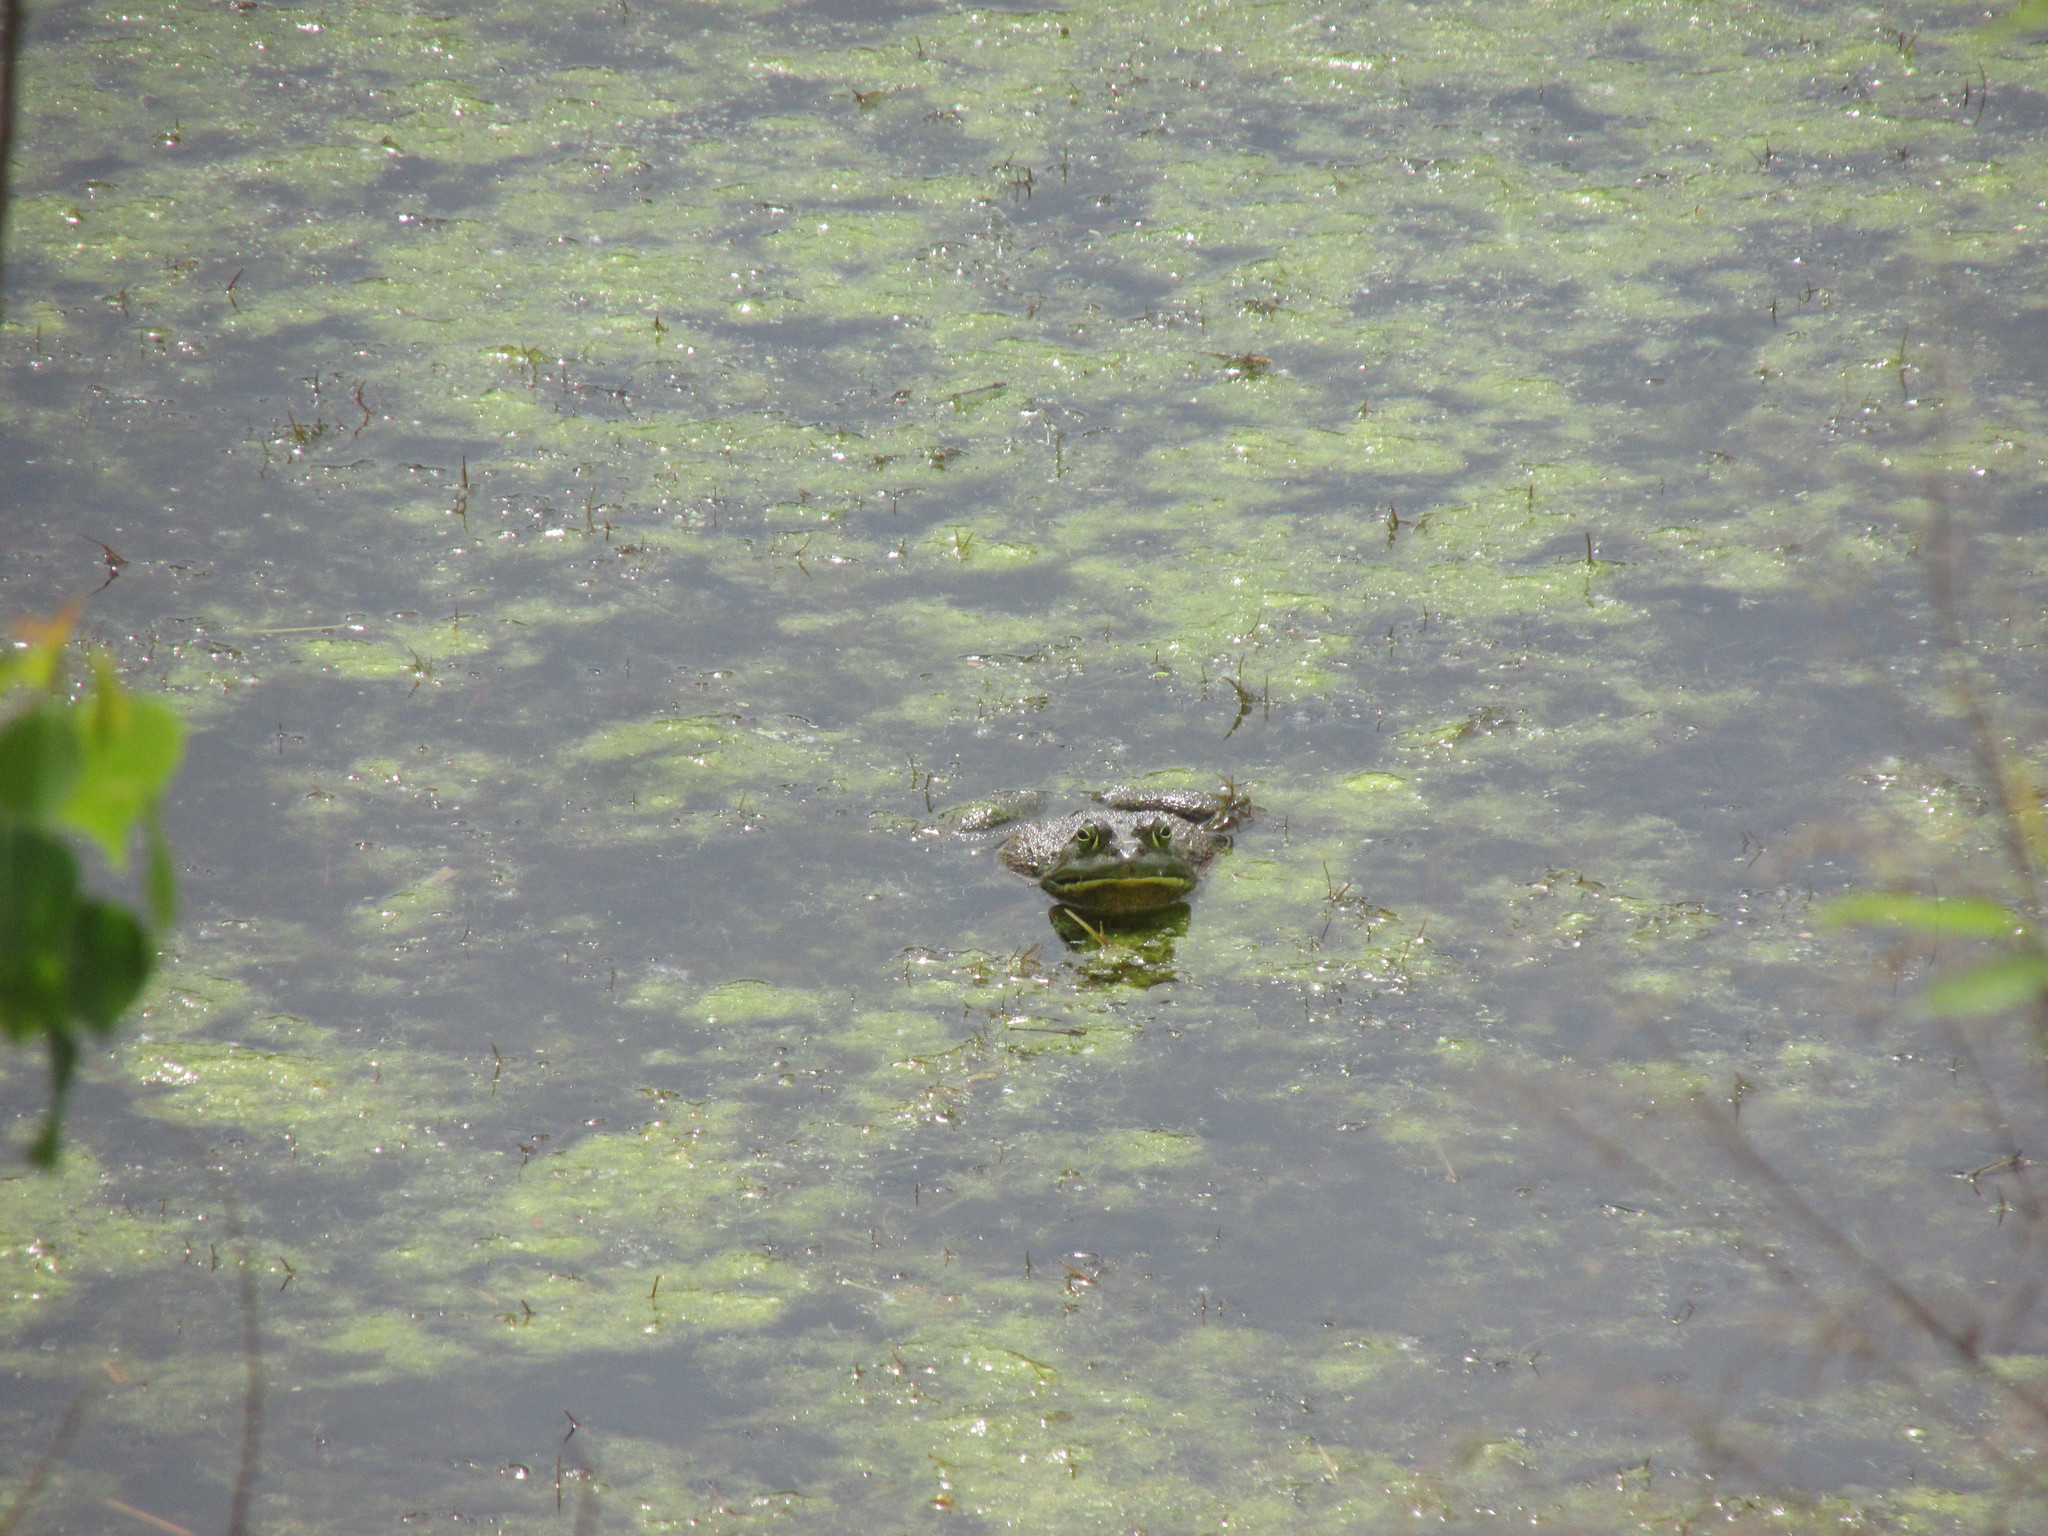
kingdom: Animalia
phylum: Chordata
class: Amphibia
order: Anura
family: Ranidae
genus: Lithobates
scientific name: Lithobates catesbeianus
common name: American bullfrog
